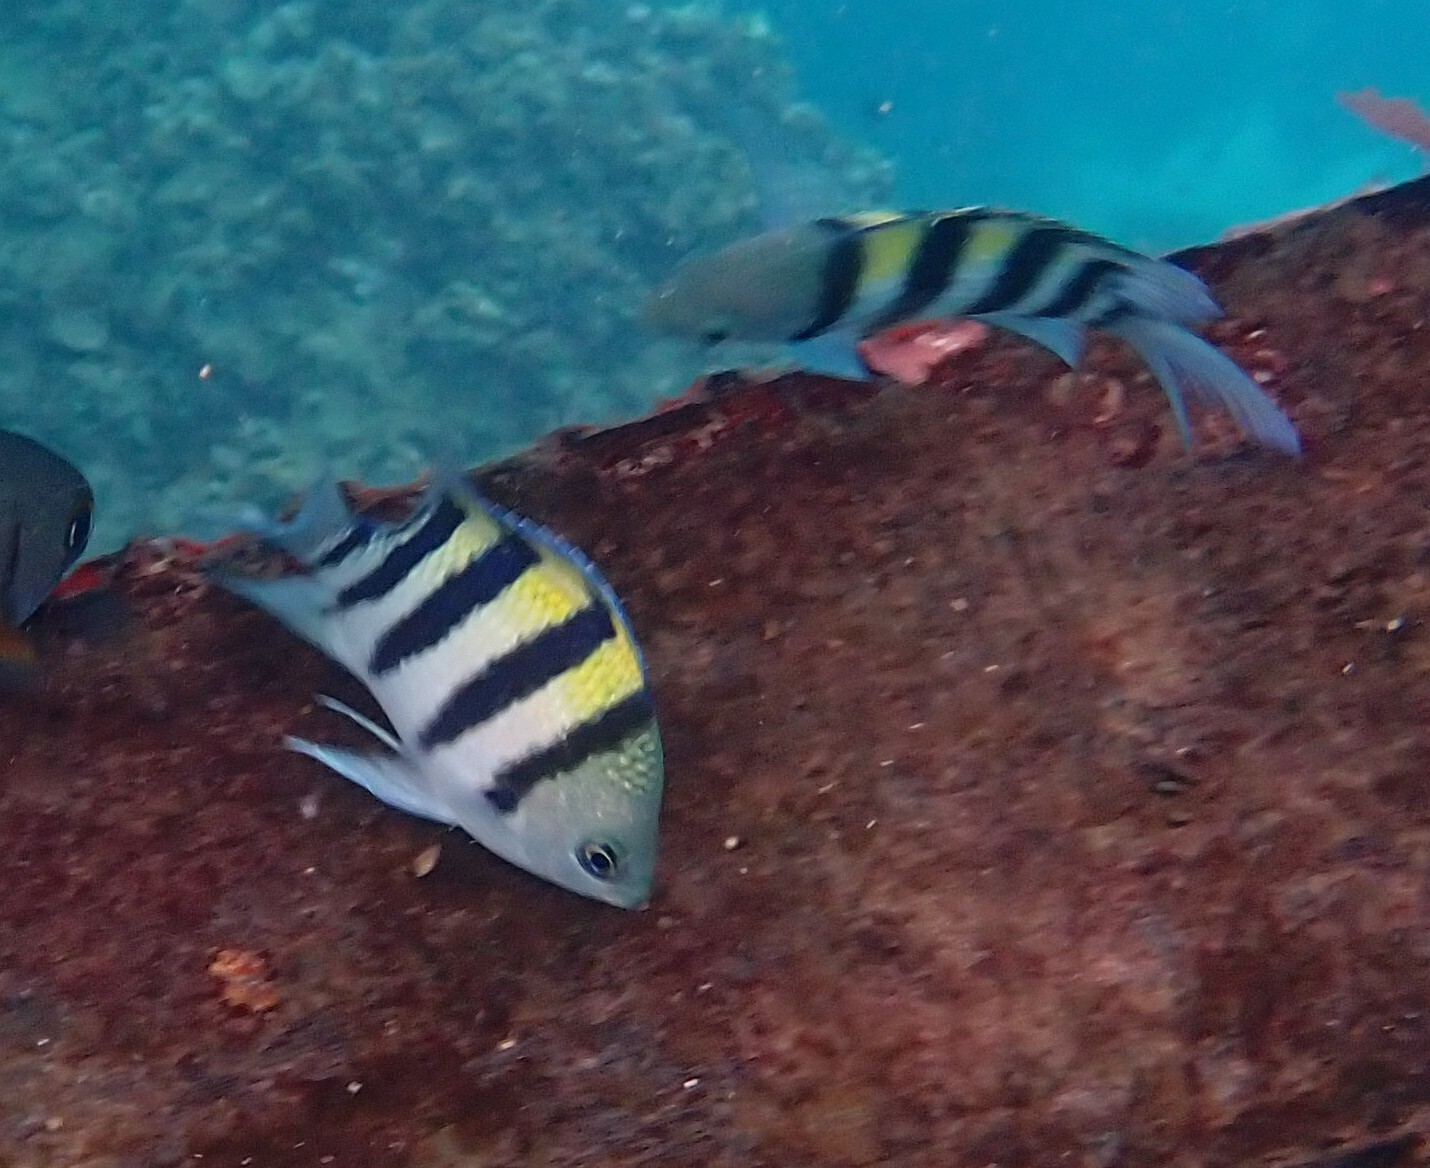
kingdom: Animalia
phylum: Chordata
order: Perciformes
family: Pomacentridae
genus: Abudefduf
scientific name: Abudefduf vaigiensis
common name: Indo-pacific sergeant
